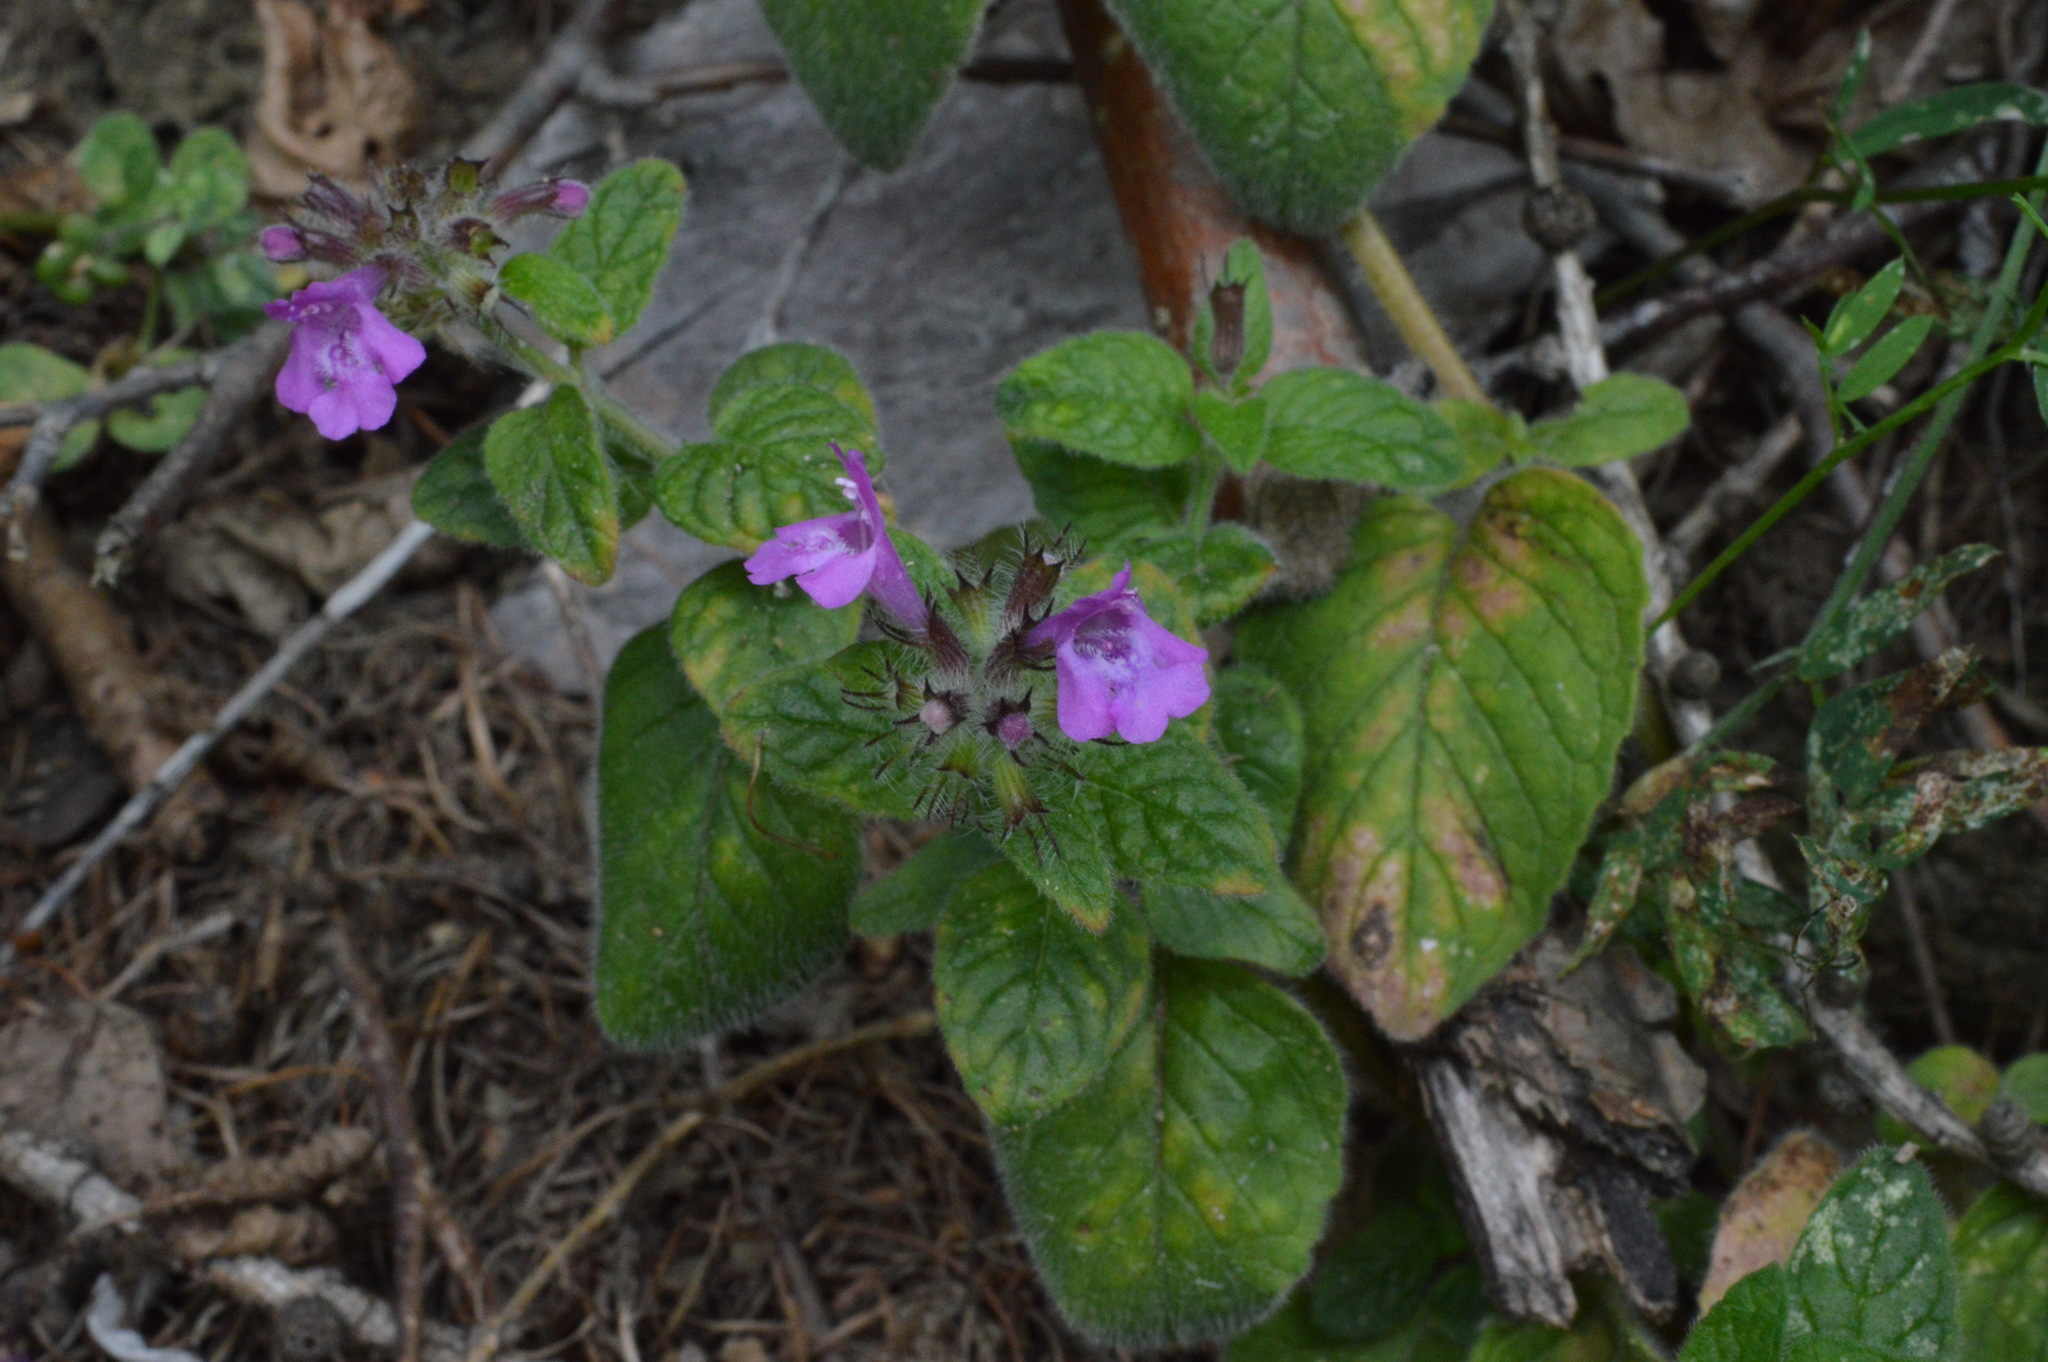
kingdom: Plantae
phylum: Tracheophyta
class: Magnoliopsida
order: Lamiales
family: Lamiaceae
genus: Clinopodium
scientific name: Clinopodium vulgare
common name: Wild basil
